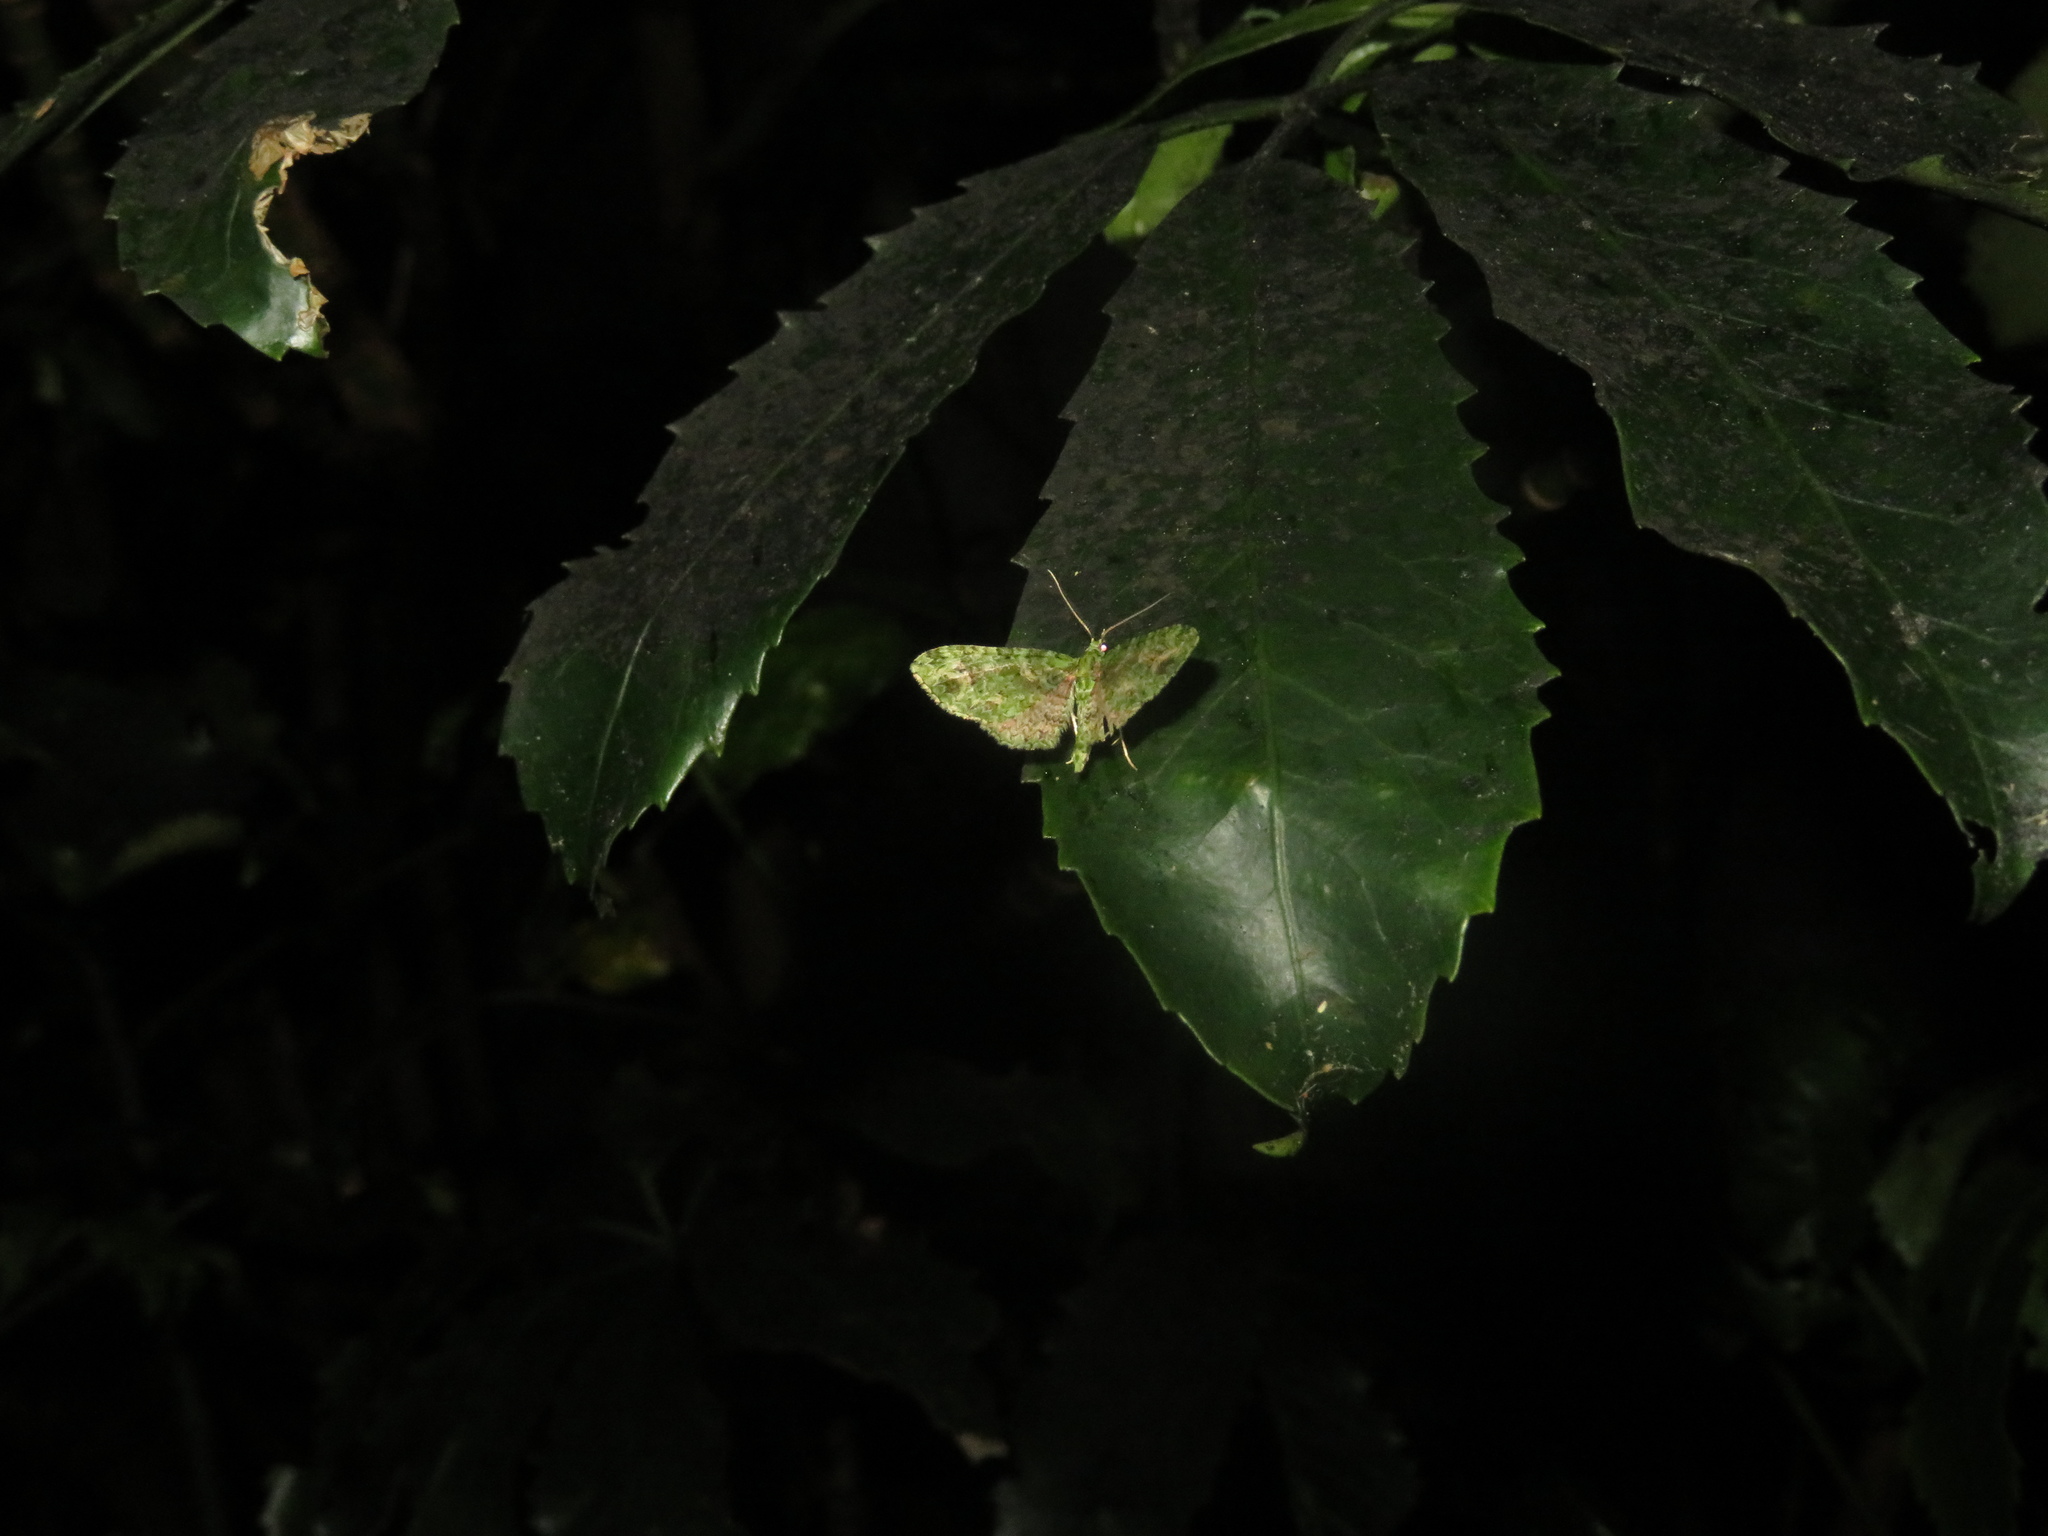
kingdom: Animalia
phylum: Arthropoda
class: Insecta
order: Lepidoptera
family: Geometridae
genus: Pasiphila
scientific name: Pasiphila muscosata
